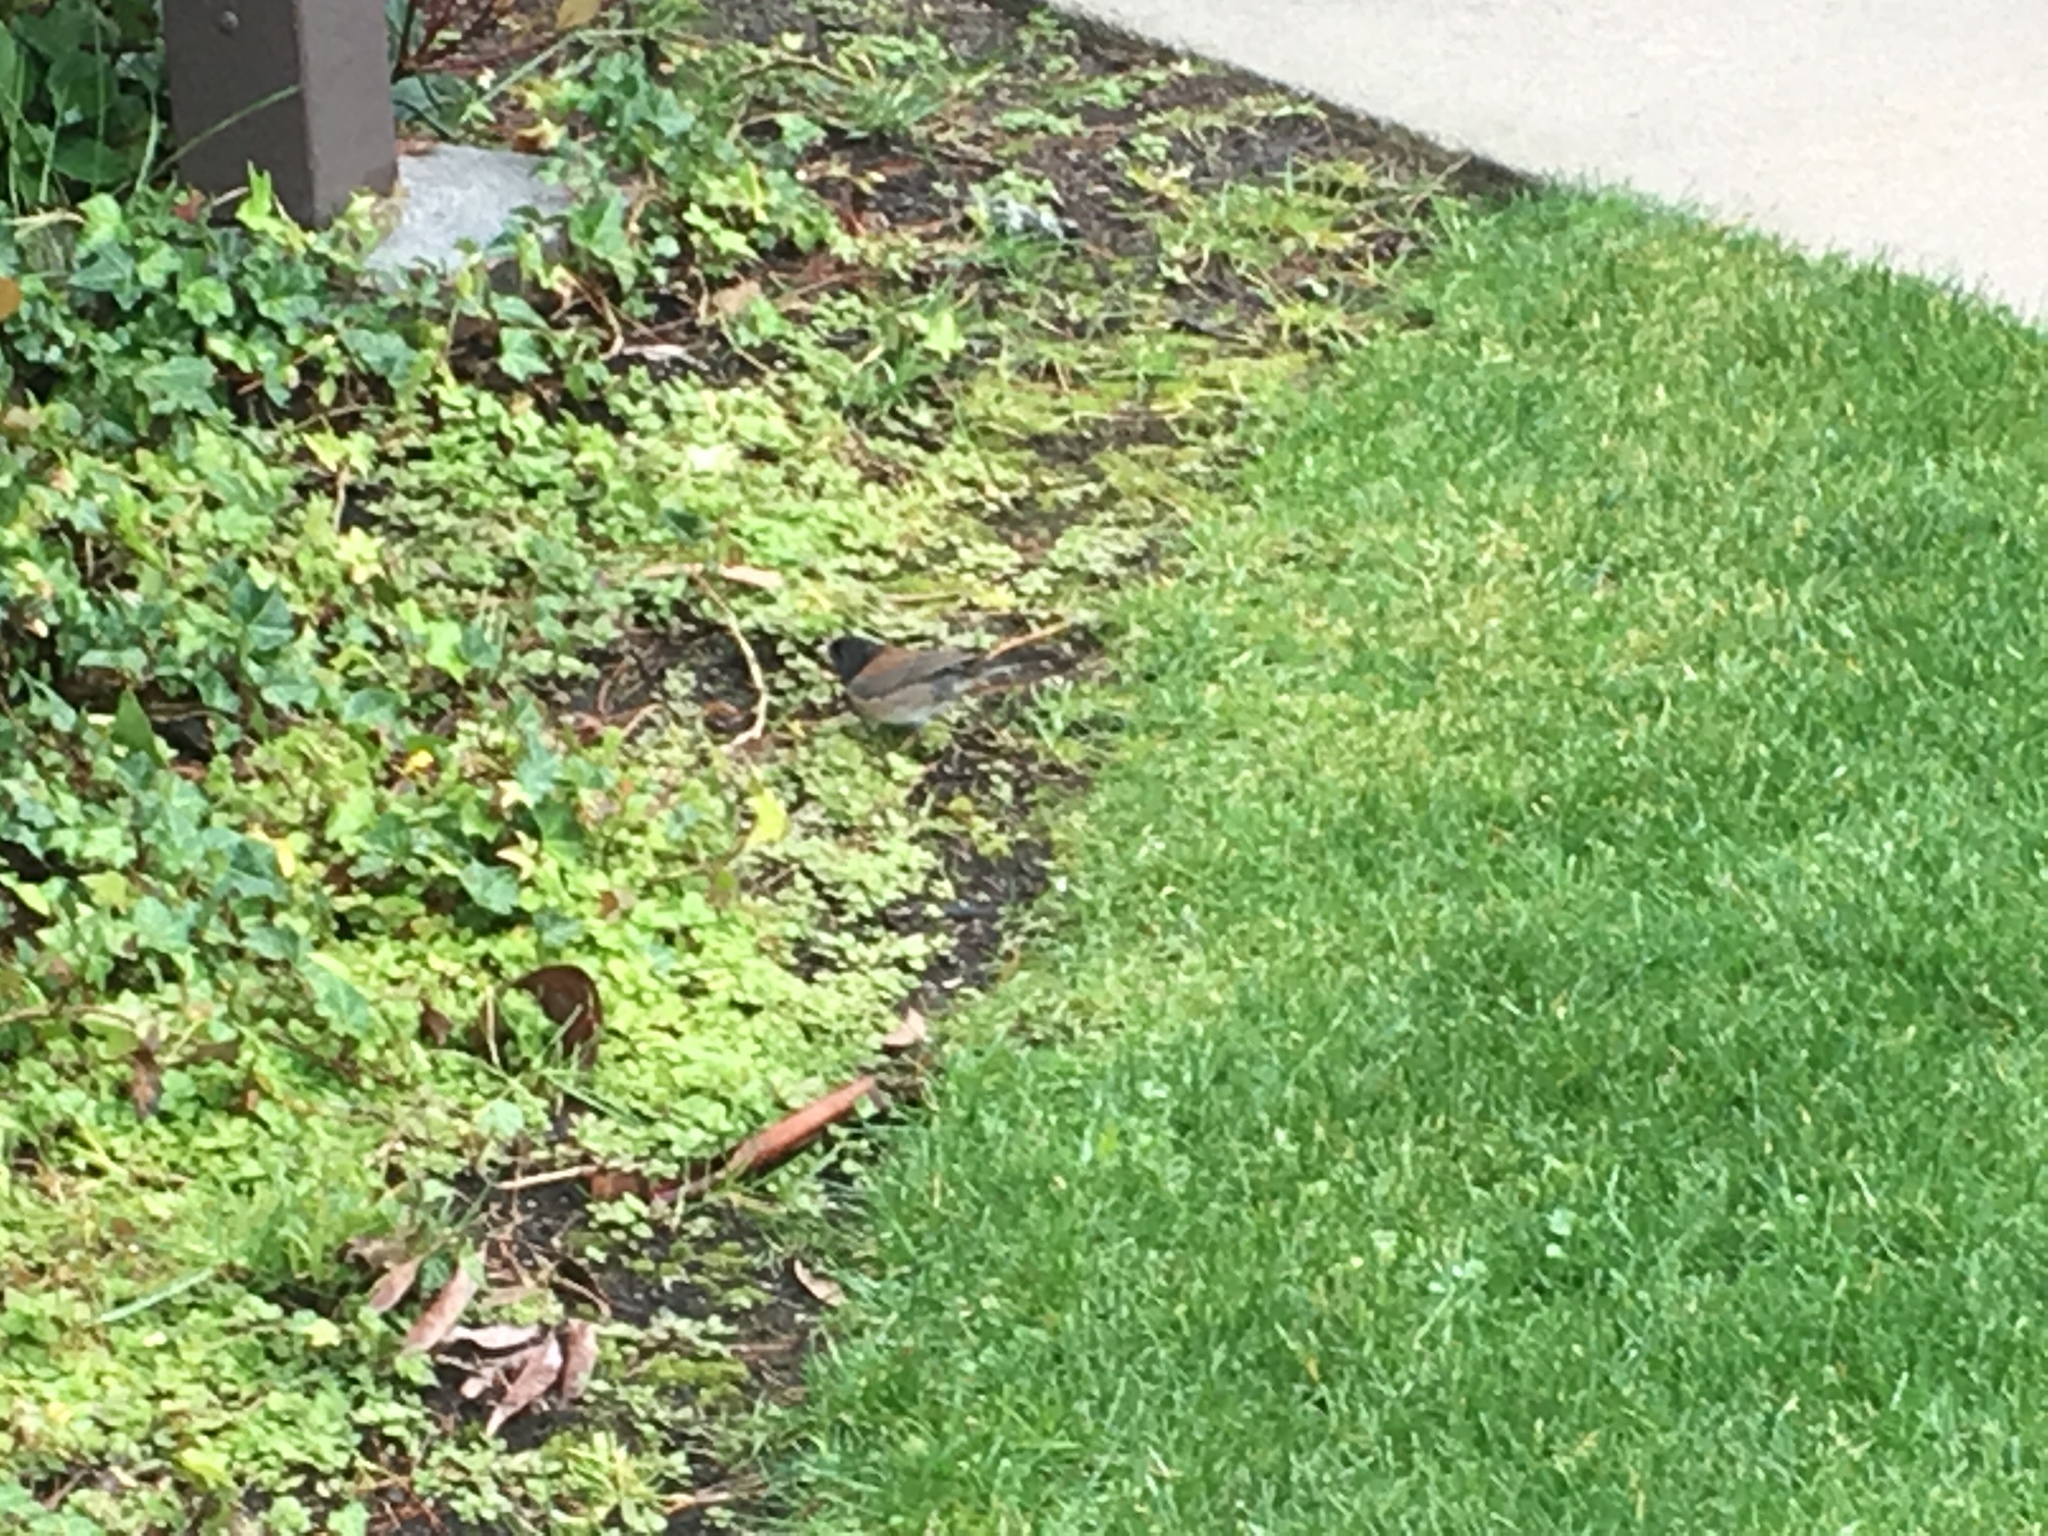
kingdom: Animalia
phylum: Chordata
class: Aves
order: Passeriformes
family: Passerellidae
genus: Junco
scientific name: Junco hyemalis
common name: Dark-eyed junco
